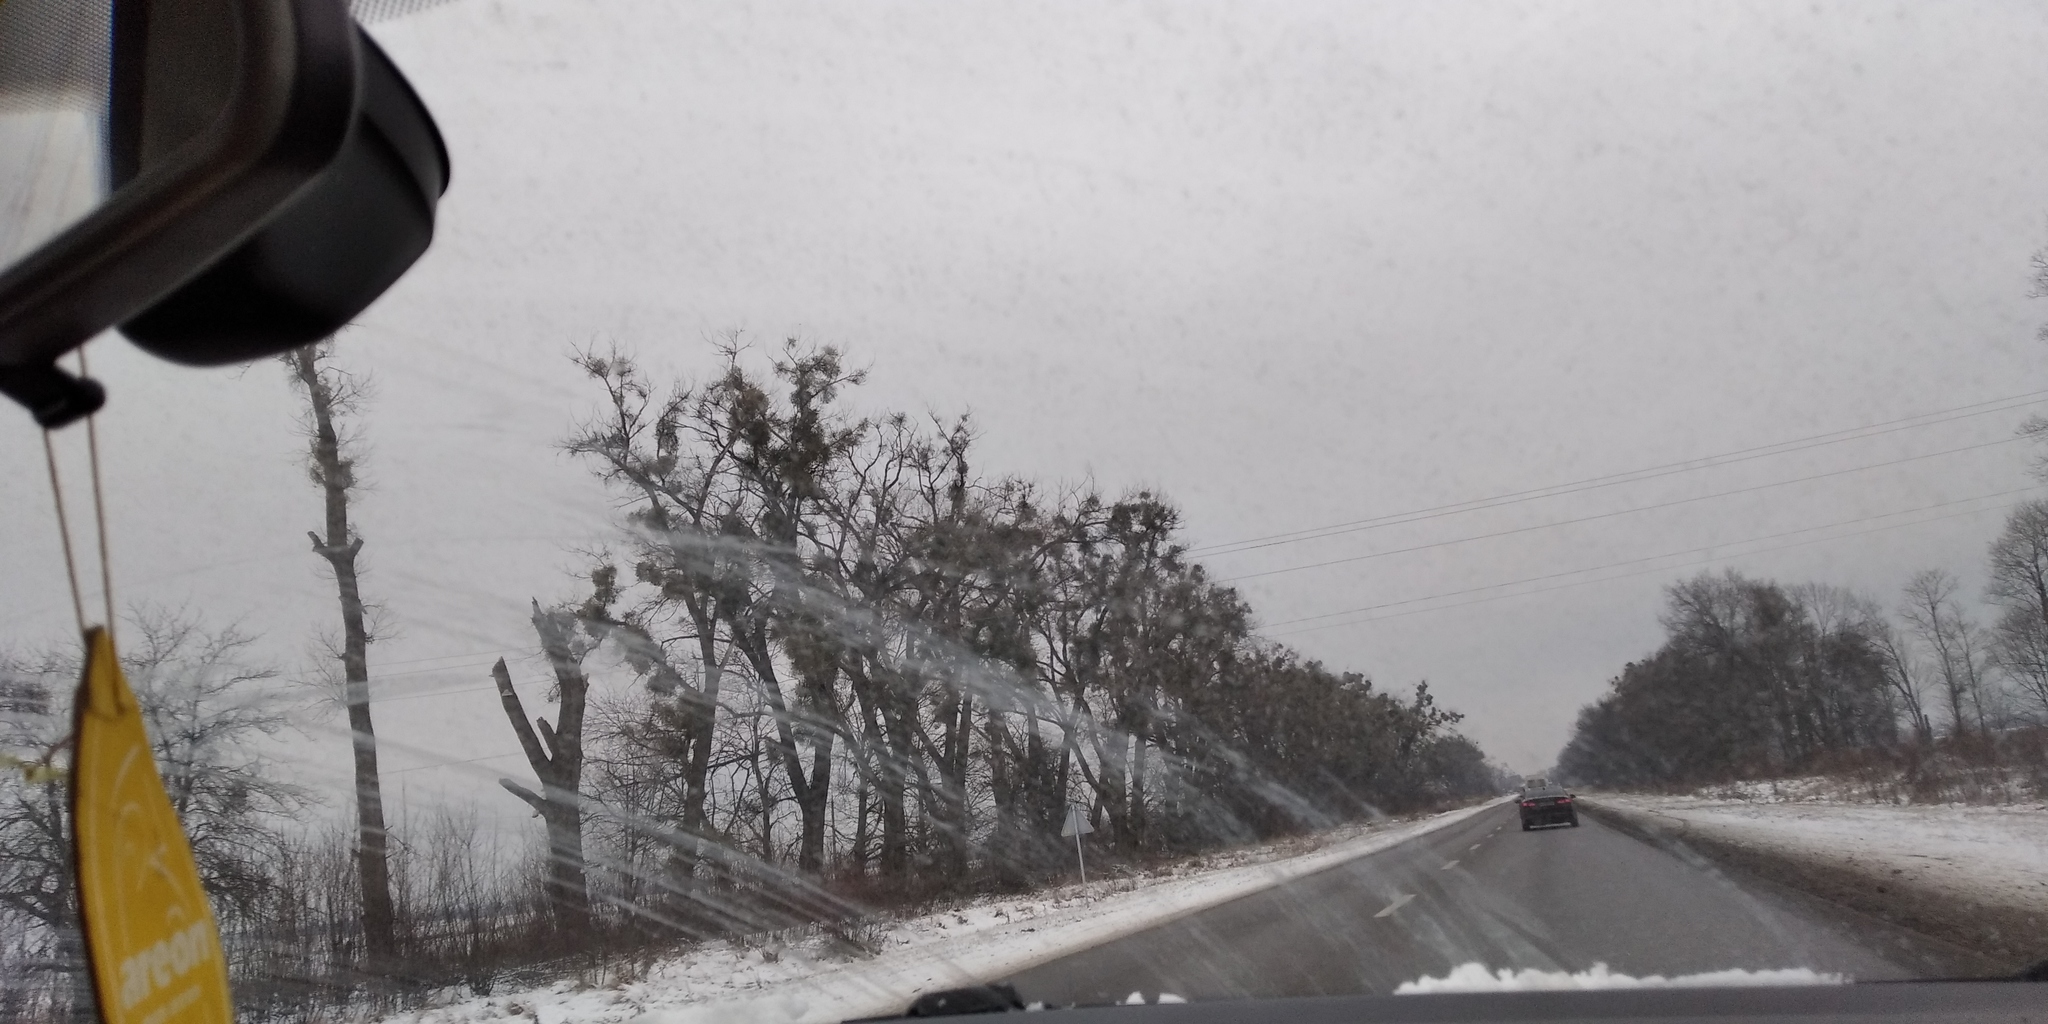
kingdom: Plantae
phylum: Tracheophyta
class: Magnoliopsida
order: Santalales
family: Viscaceae
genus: Viscum
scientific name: Viscum album
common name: Mistletoe
